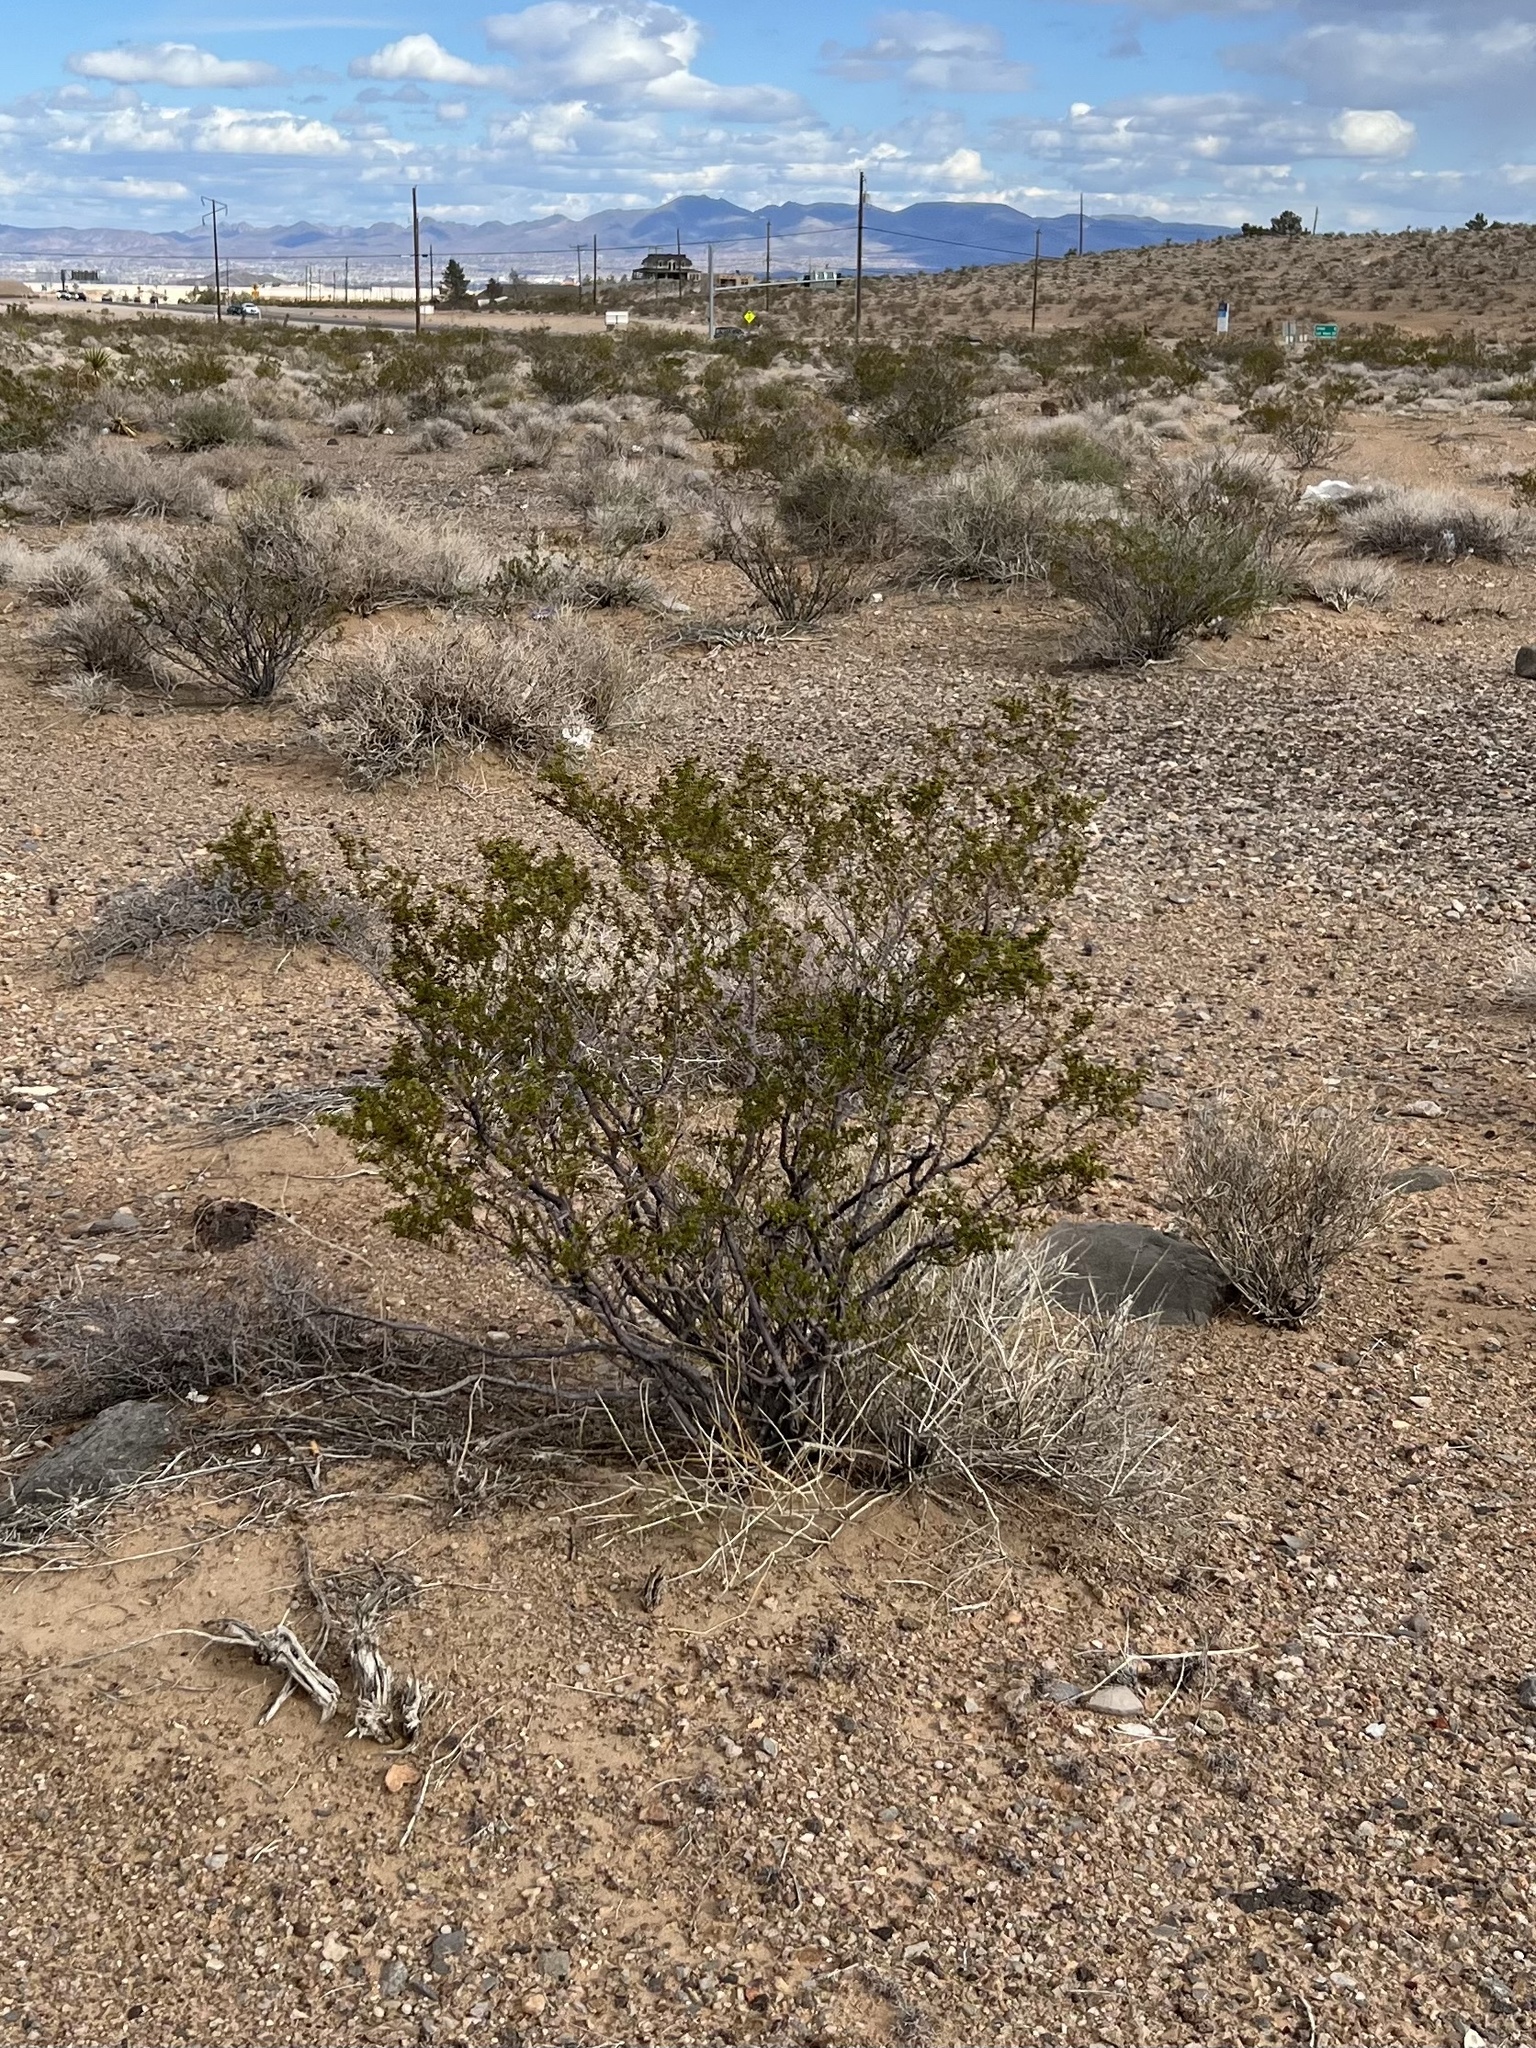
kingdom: Plantae
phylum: Tracheophyta
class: Magnoliopsida
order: Zygophyllales
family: Zygophyllaceae
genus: Larrea
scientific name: Larrea tridentata
